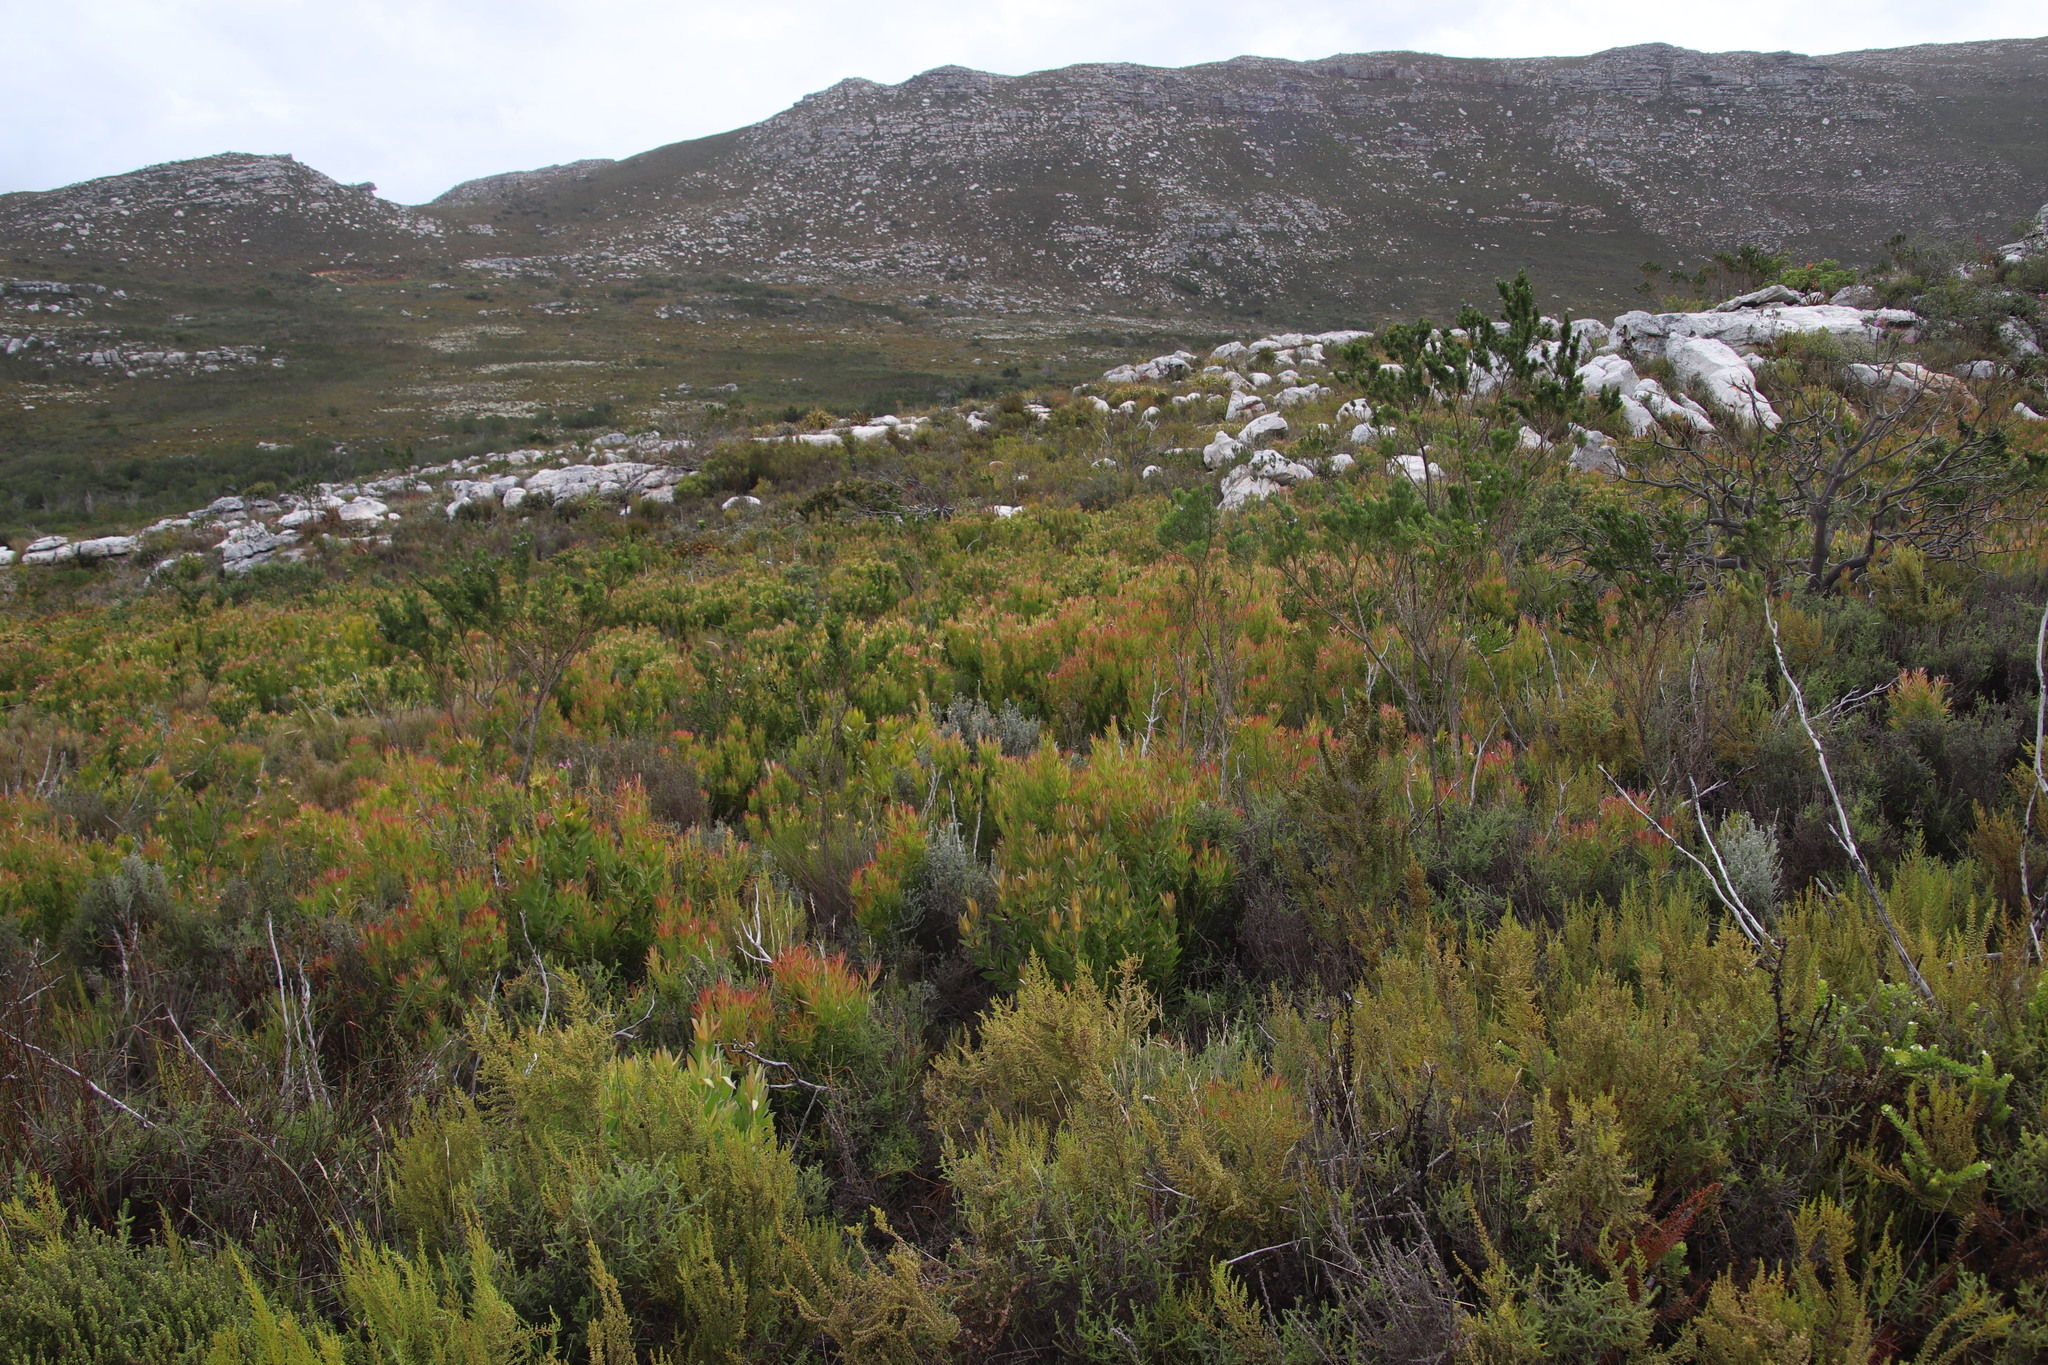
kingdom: Plantae
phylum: Tracheophyta
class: Magnoliopsida
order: Proteales
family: Proteaceae
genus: Leucadendron
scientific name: Leucadendron xanthoconus
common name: Sickle-leaf conebush
